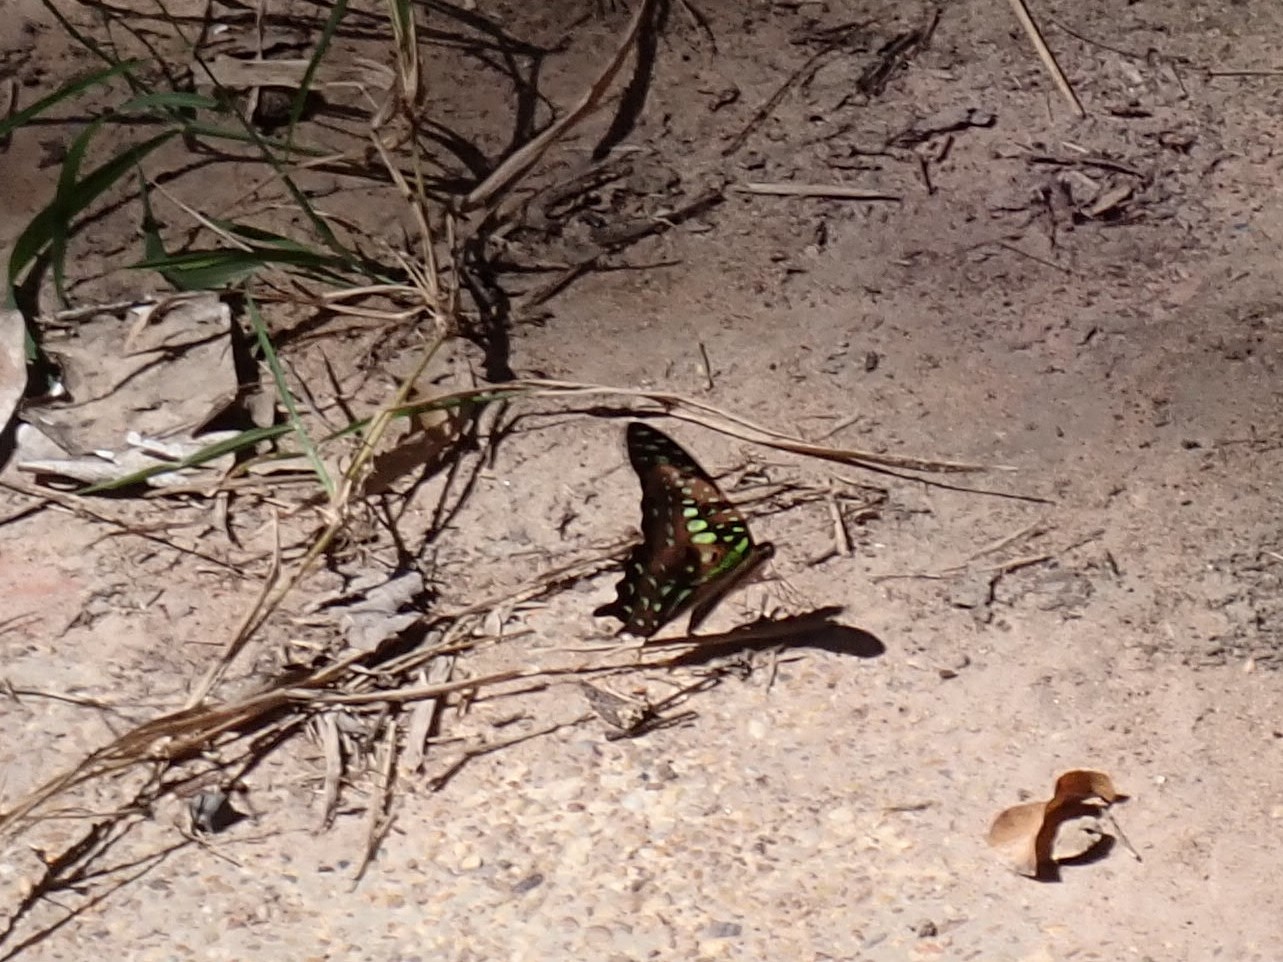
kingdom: Animalia
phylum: Arthropoda
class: Insecta
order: Lepidoptera
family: Papilionidae
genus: Graphium
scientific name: Graphium agamemnon
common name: Tailed jay
